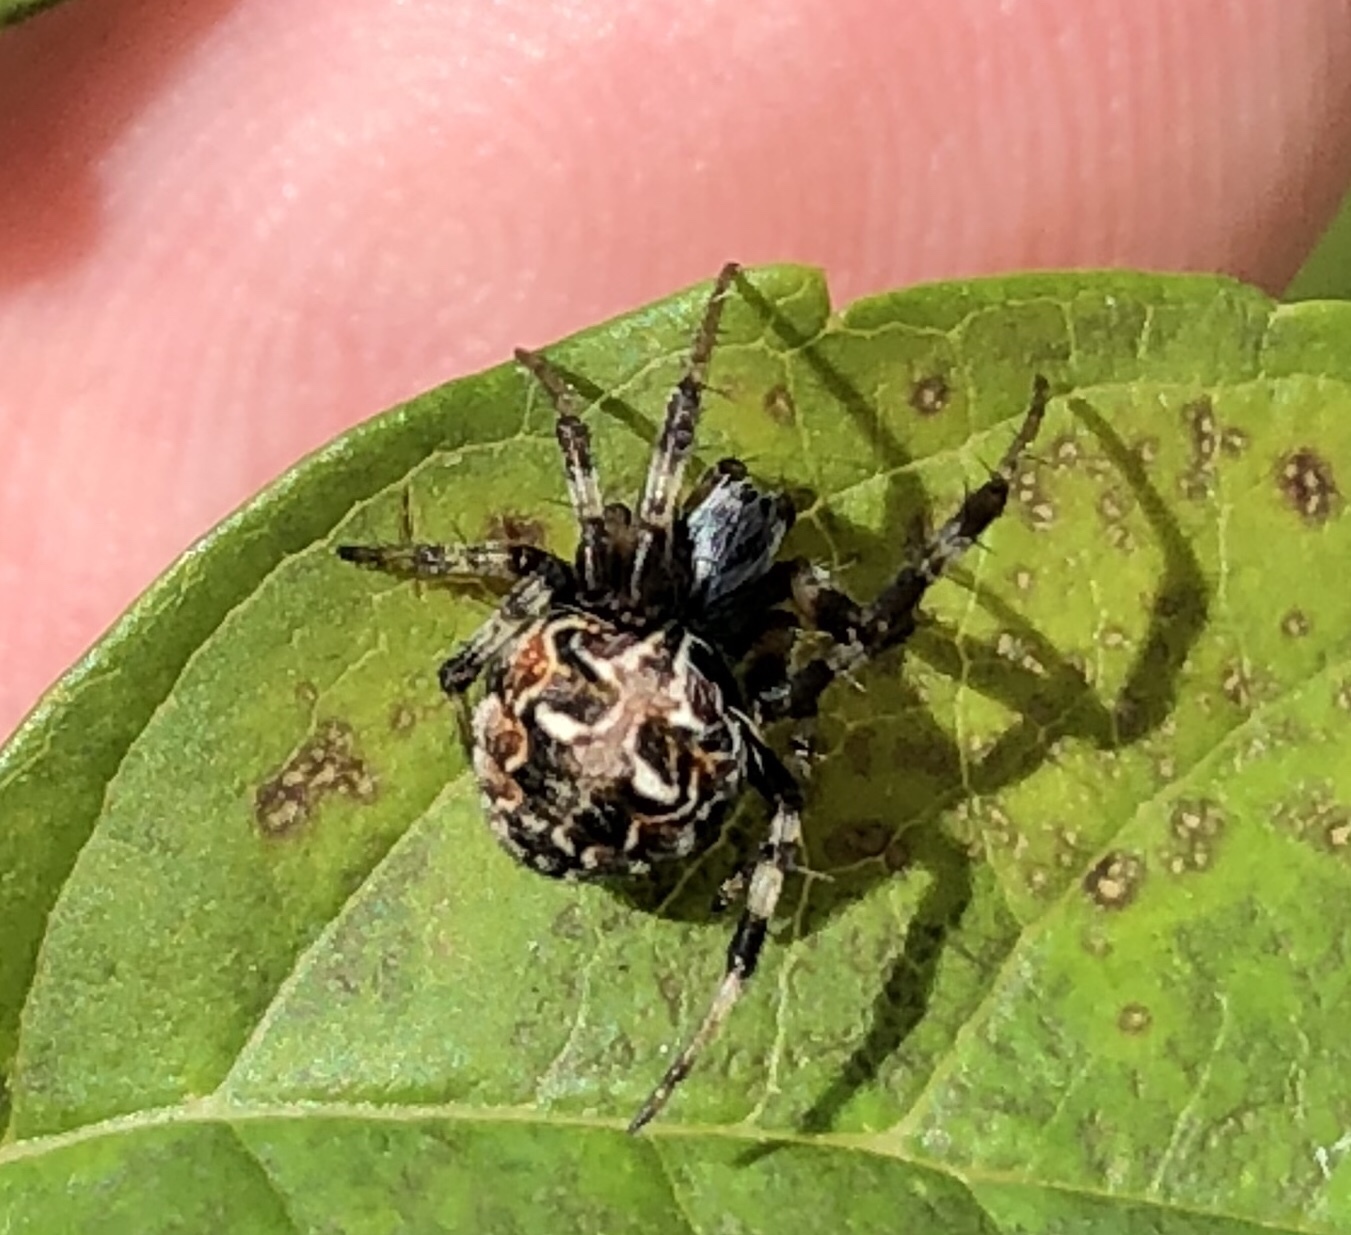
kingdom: Animalia
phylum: Arthropoda
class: Arachnida
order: Araneae
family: Araneidae
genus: Metepeira
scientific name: Metepeira labyrinthea
